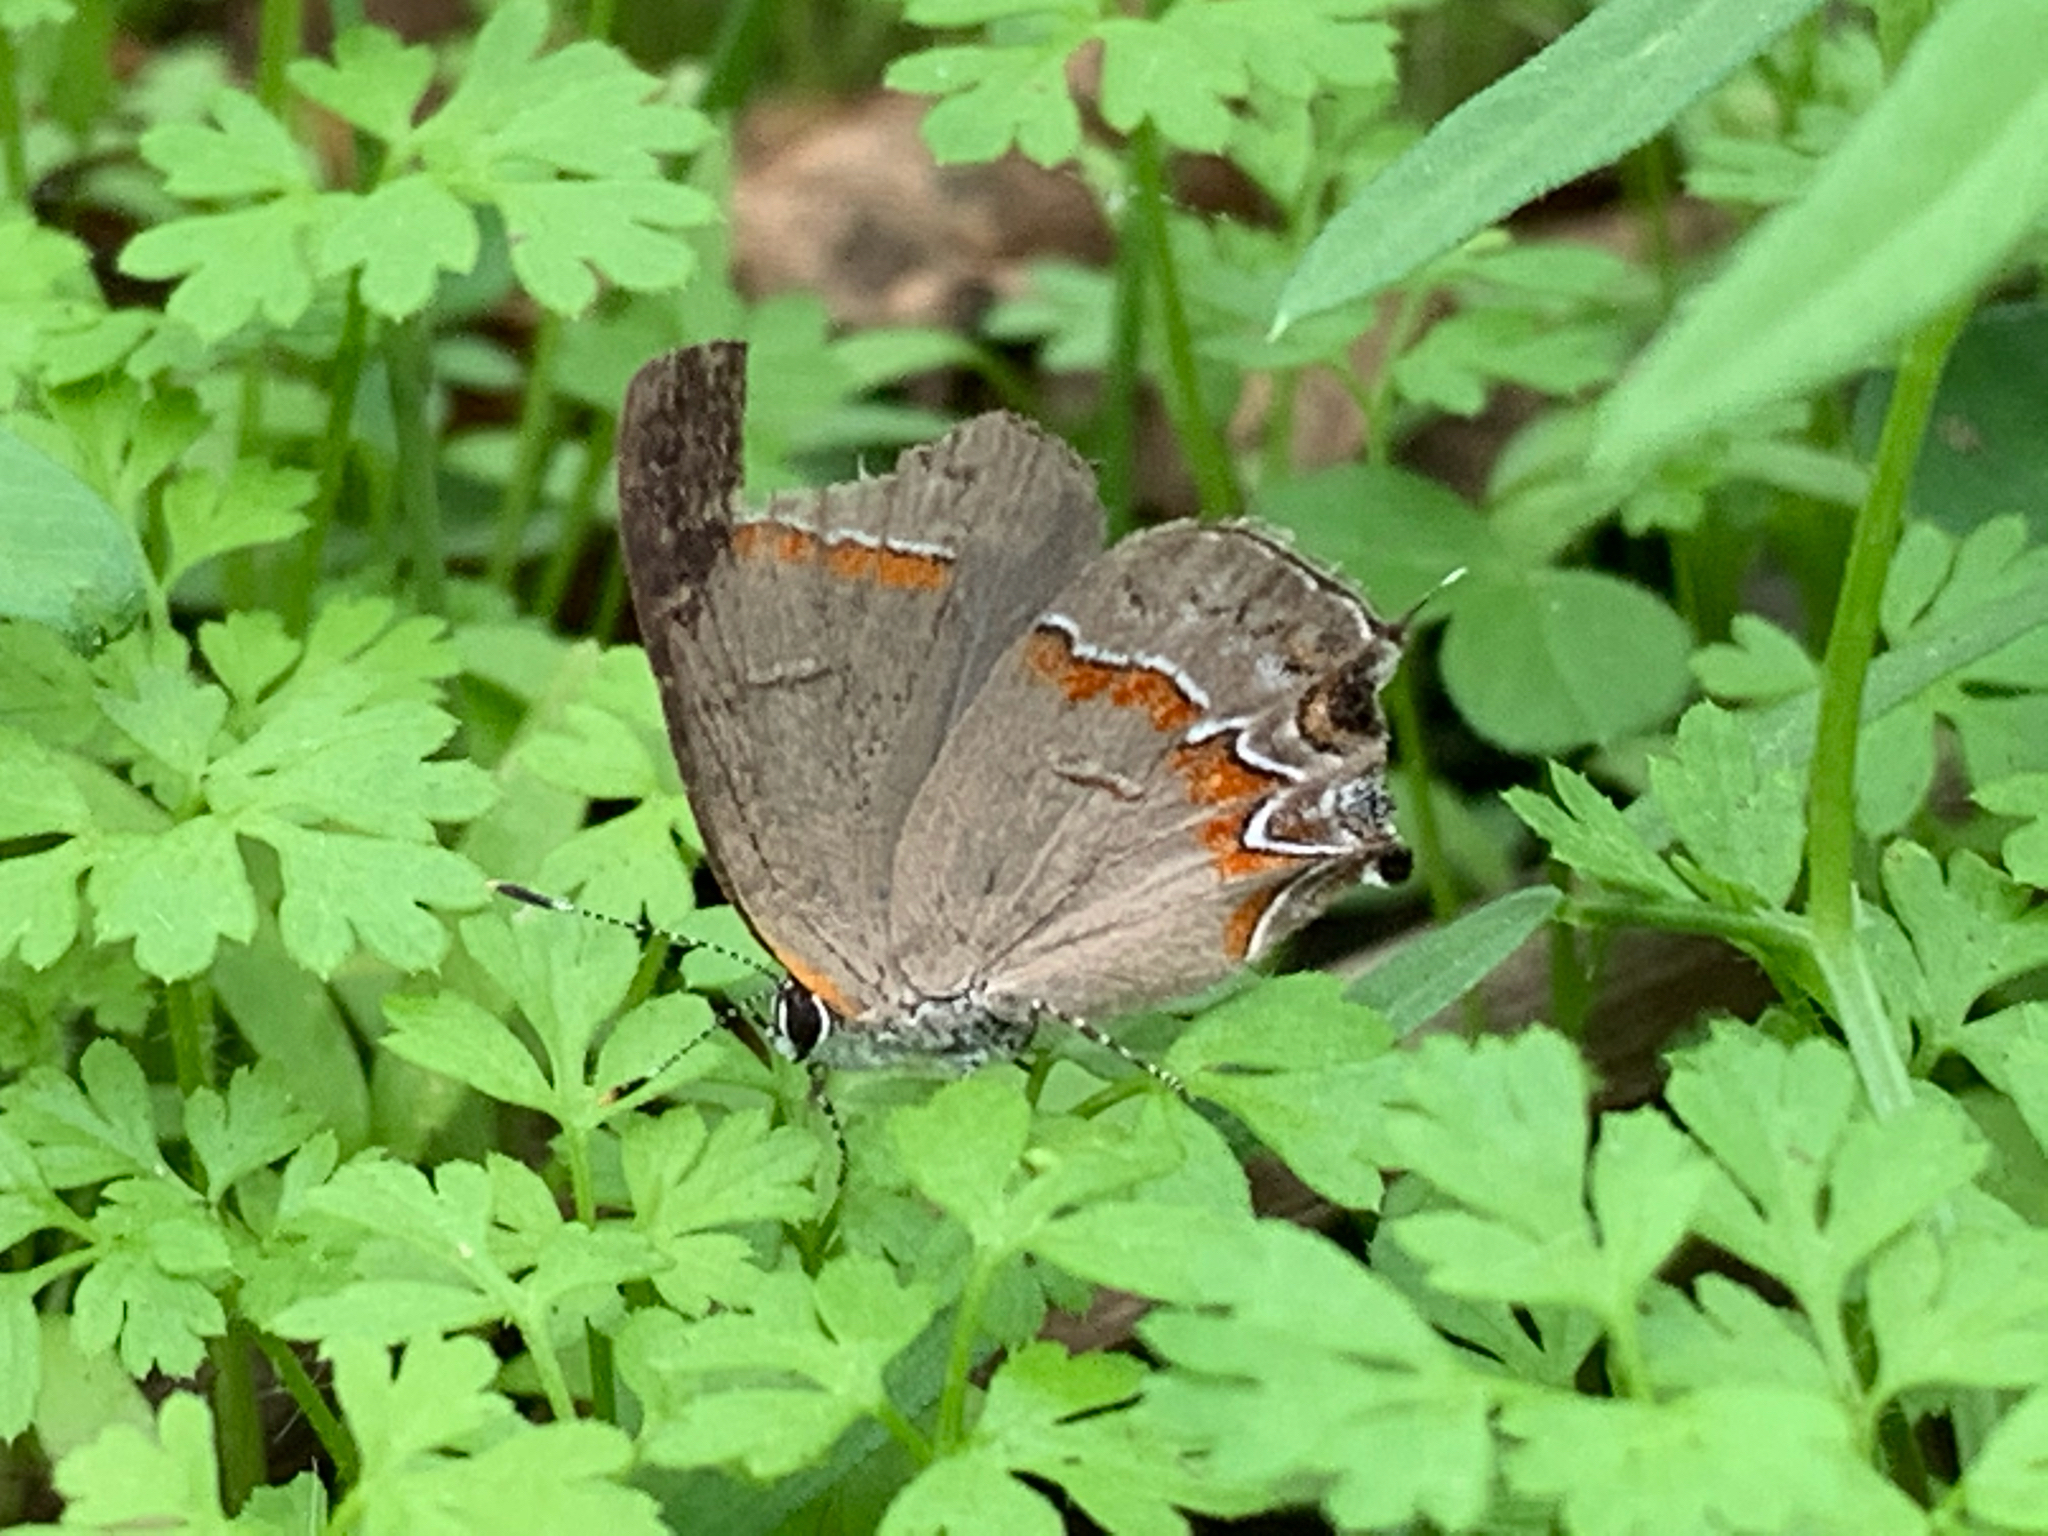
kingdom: Animalia
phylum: Arthropoda
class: Insecta
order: Lepidoptera
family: Lycaenidae
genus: Calycopis
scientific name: Calycopis cecrops
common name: Red-banded hairstreak
